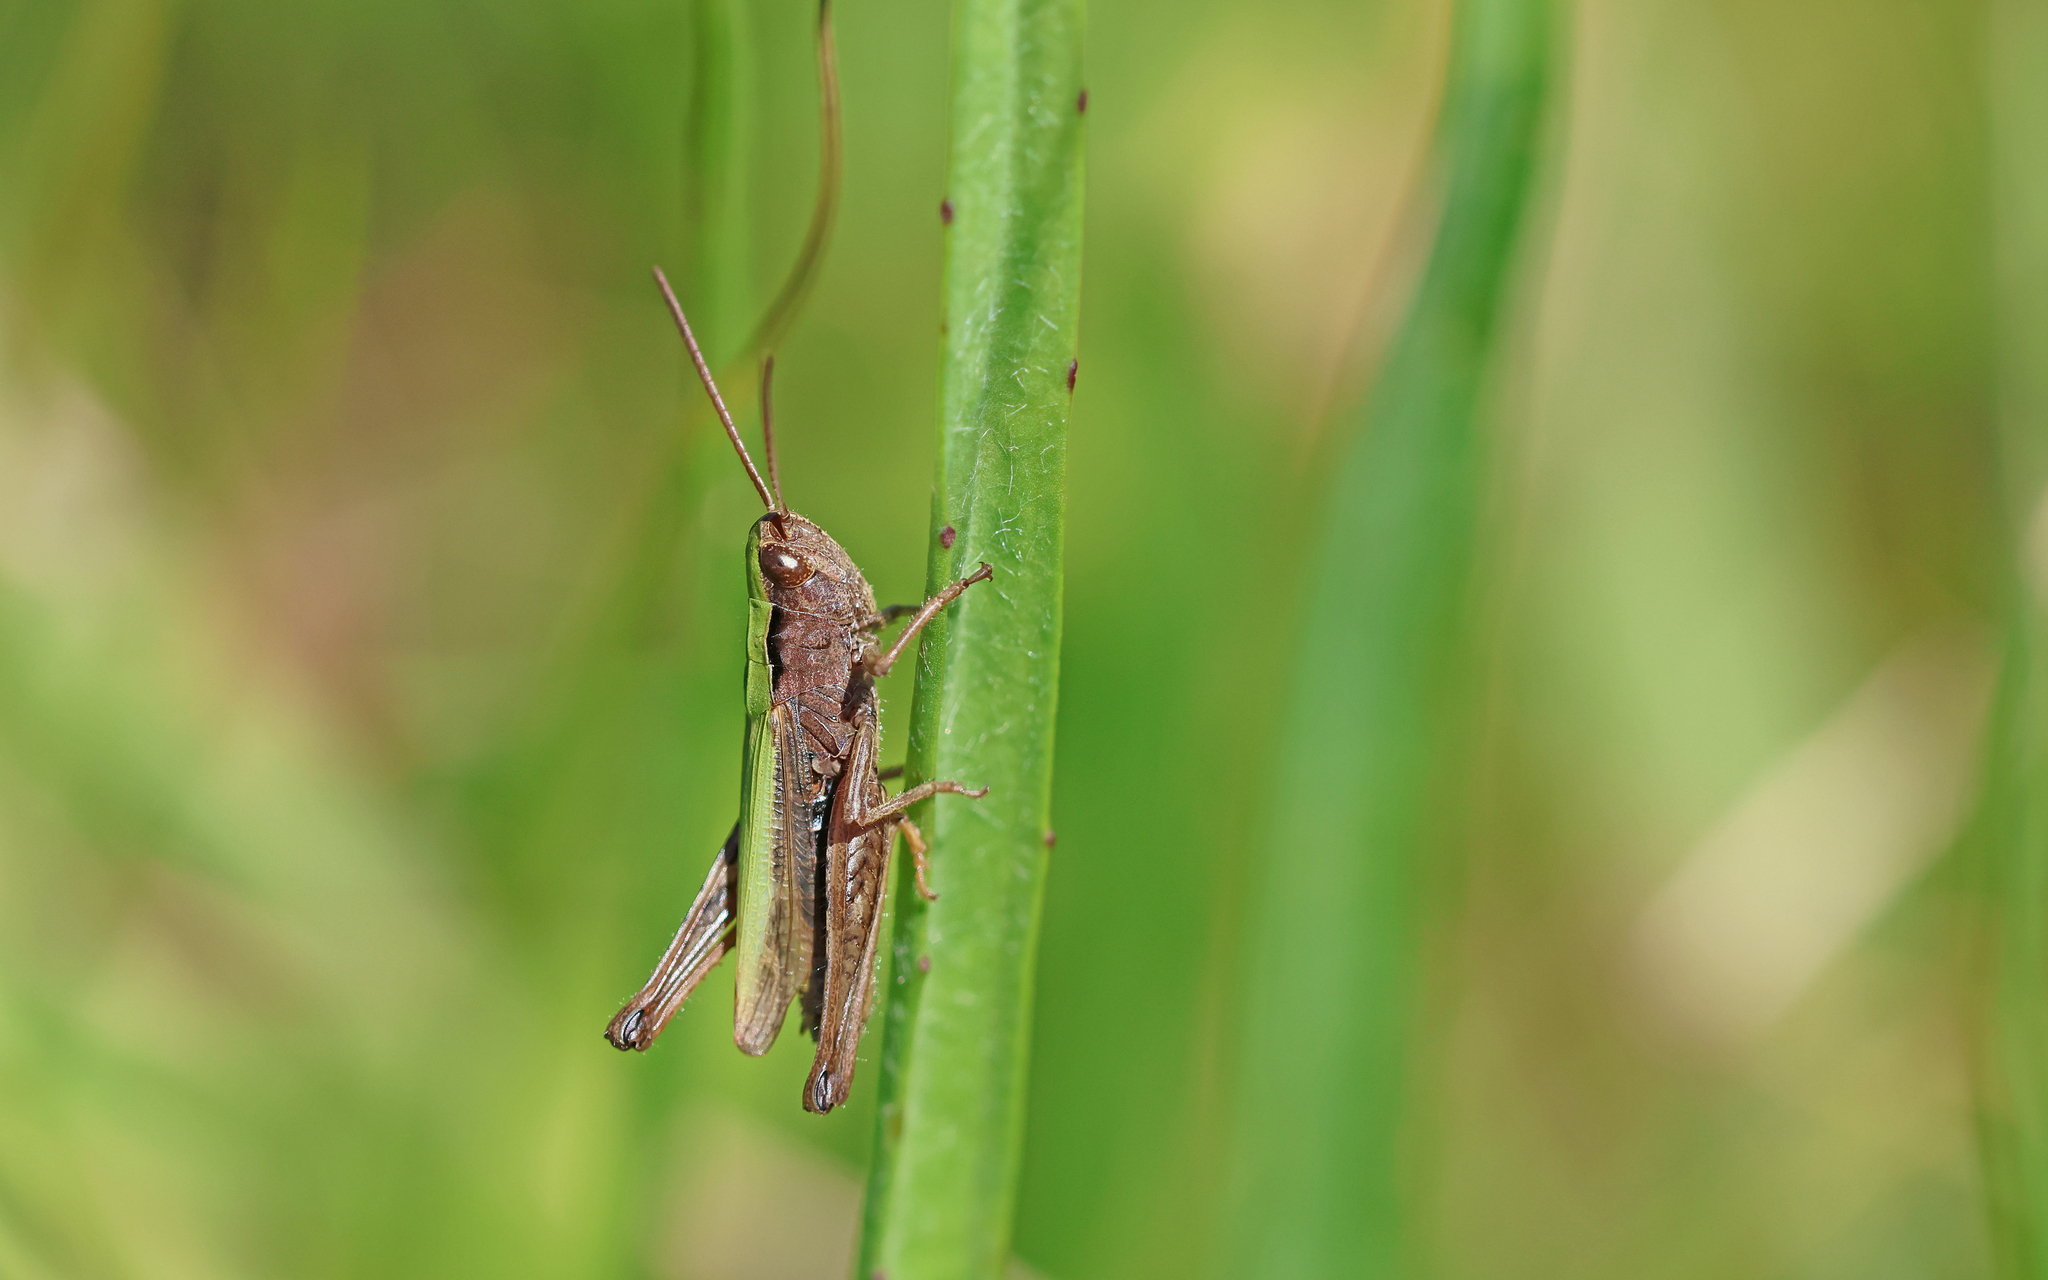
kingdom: Animalia
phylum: Arthropoda
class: Insecta
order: Orthoptera
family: Acrididae
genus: Stethophyma
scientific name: Stethophyma grossum
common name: Large marsh grasshopper
